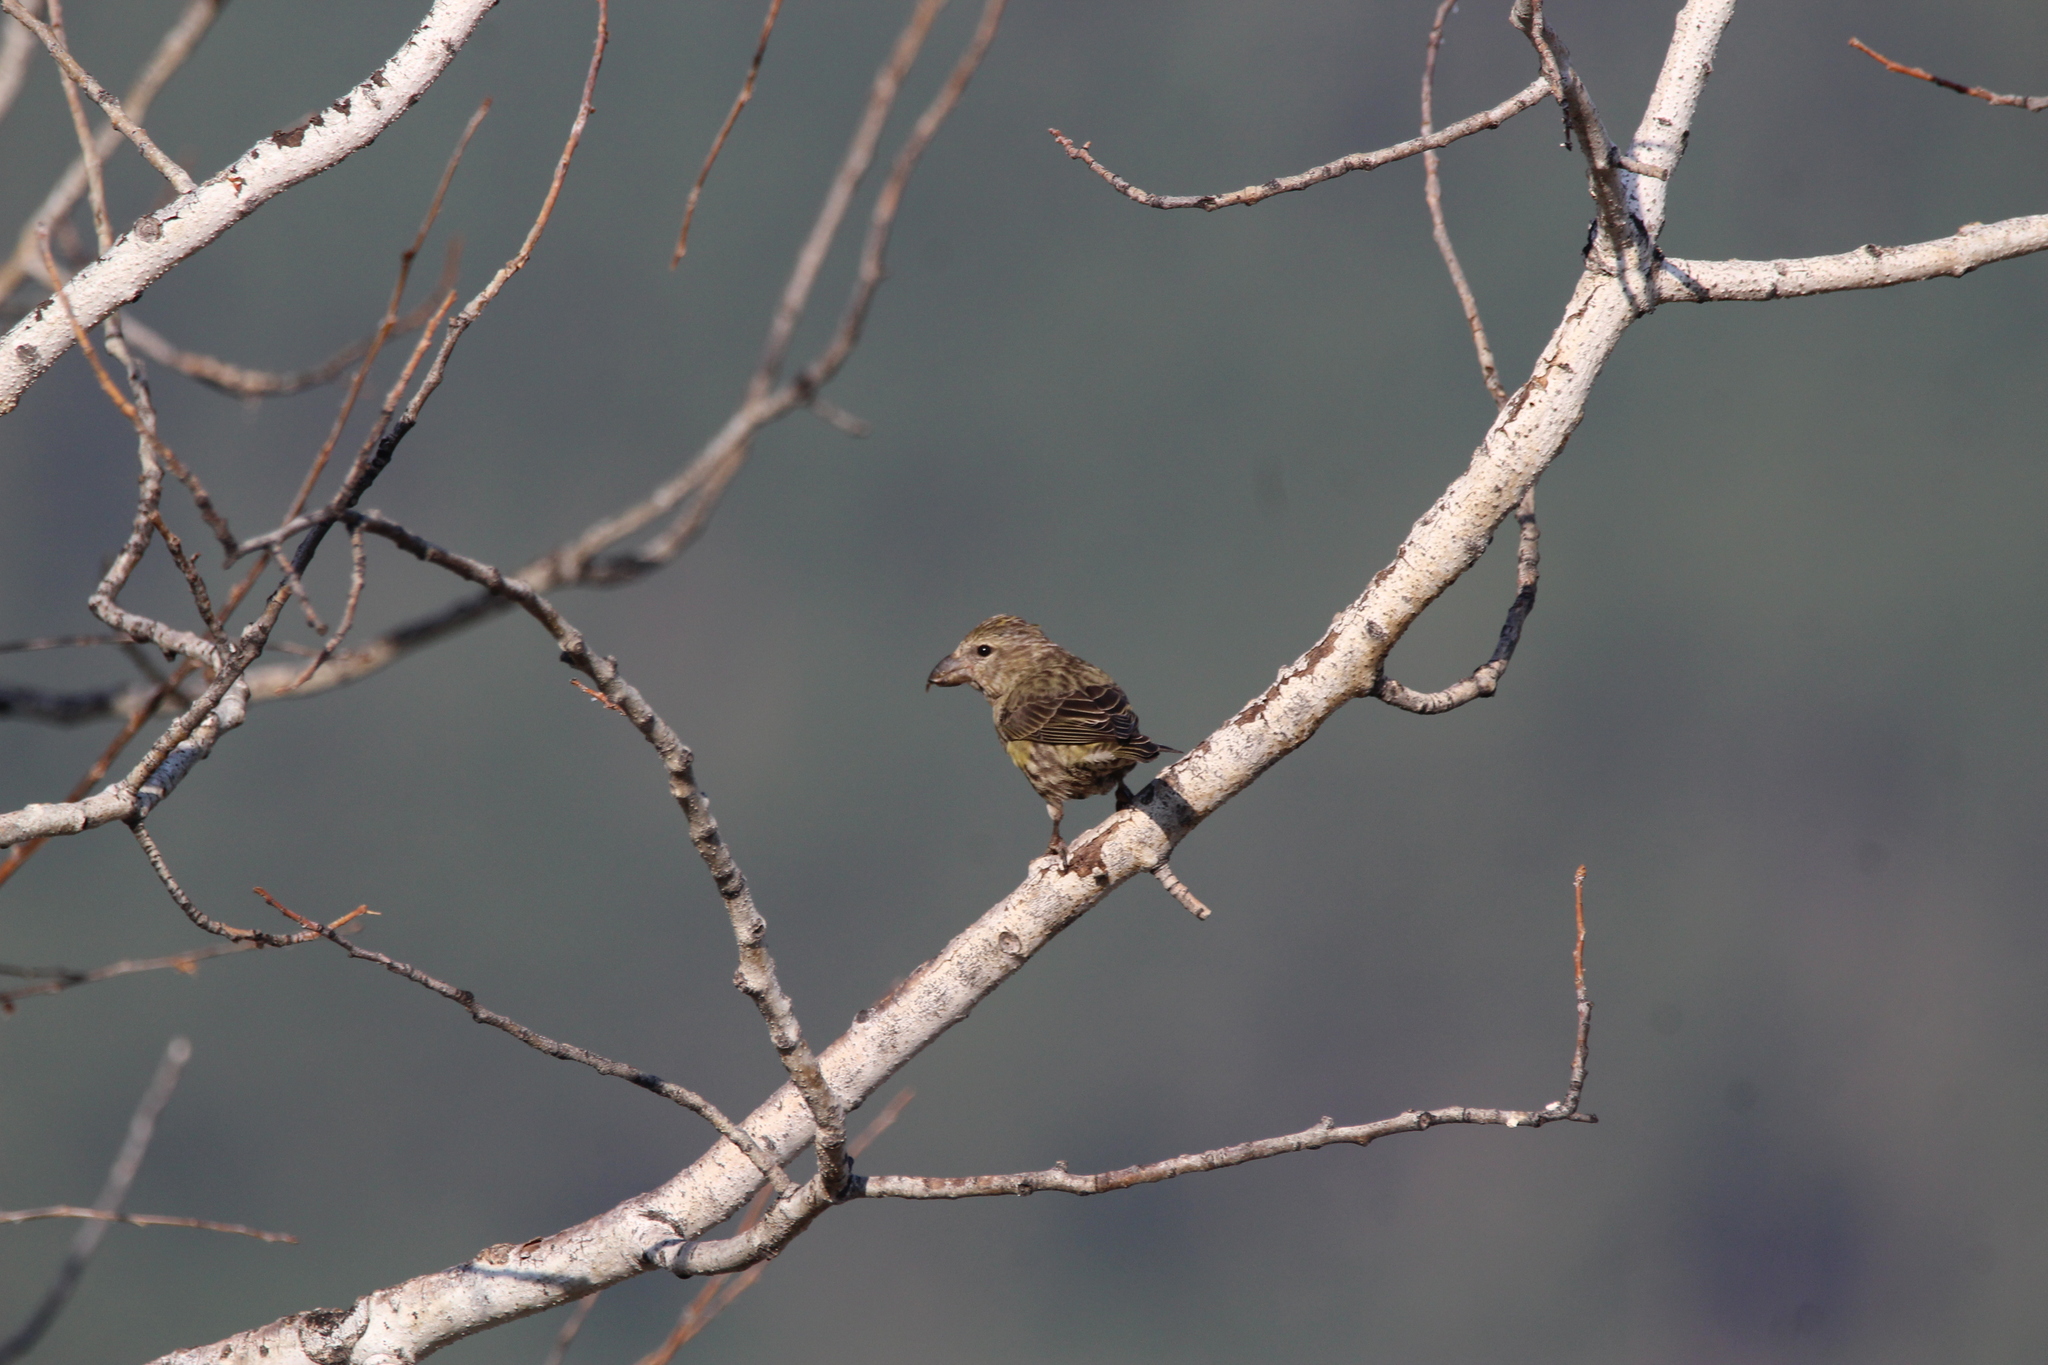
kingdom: Animalia
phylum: Chordata
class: Aves
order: Passeriformes
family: Fringillidae
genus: Loxia
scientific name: Loxia curvirostra
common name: Red crossbill
